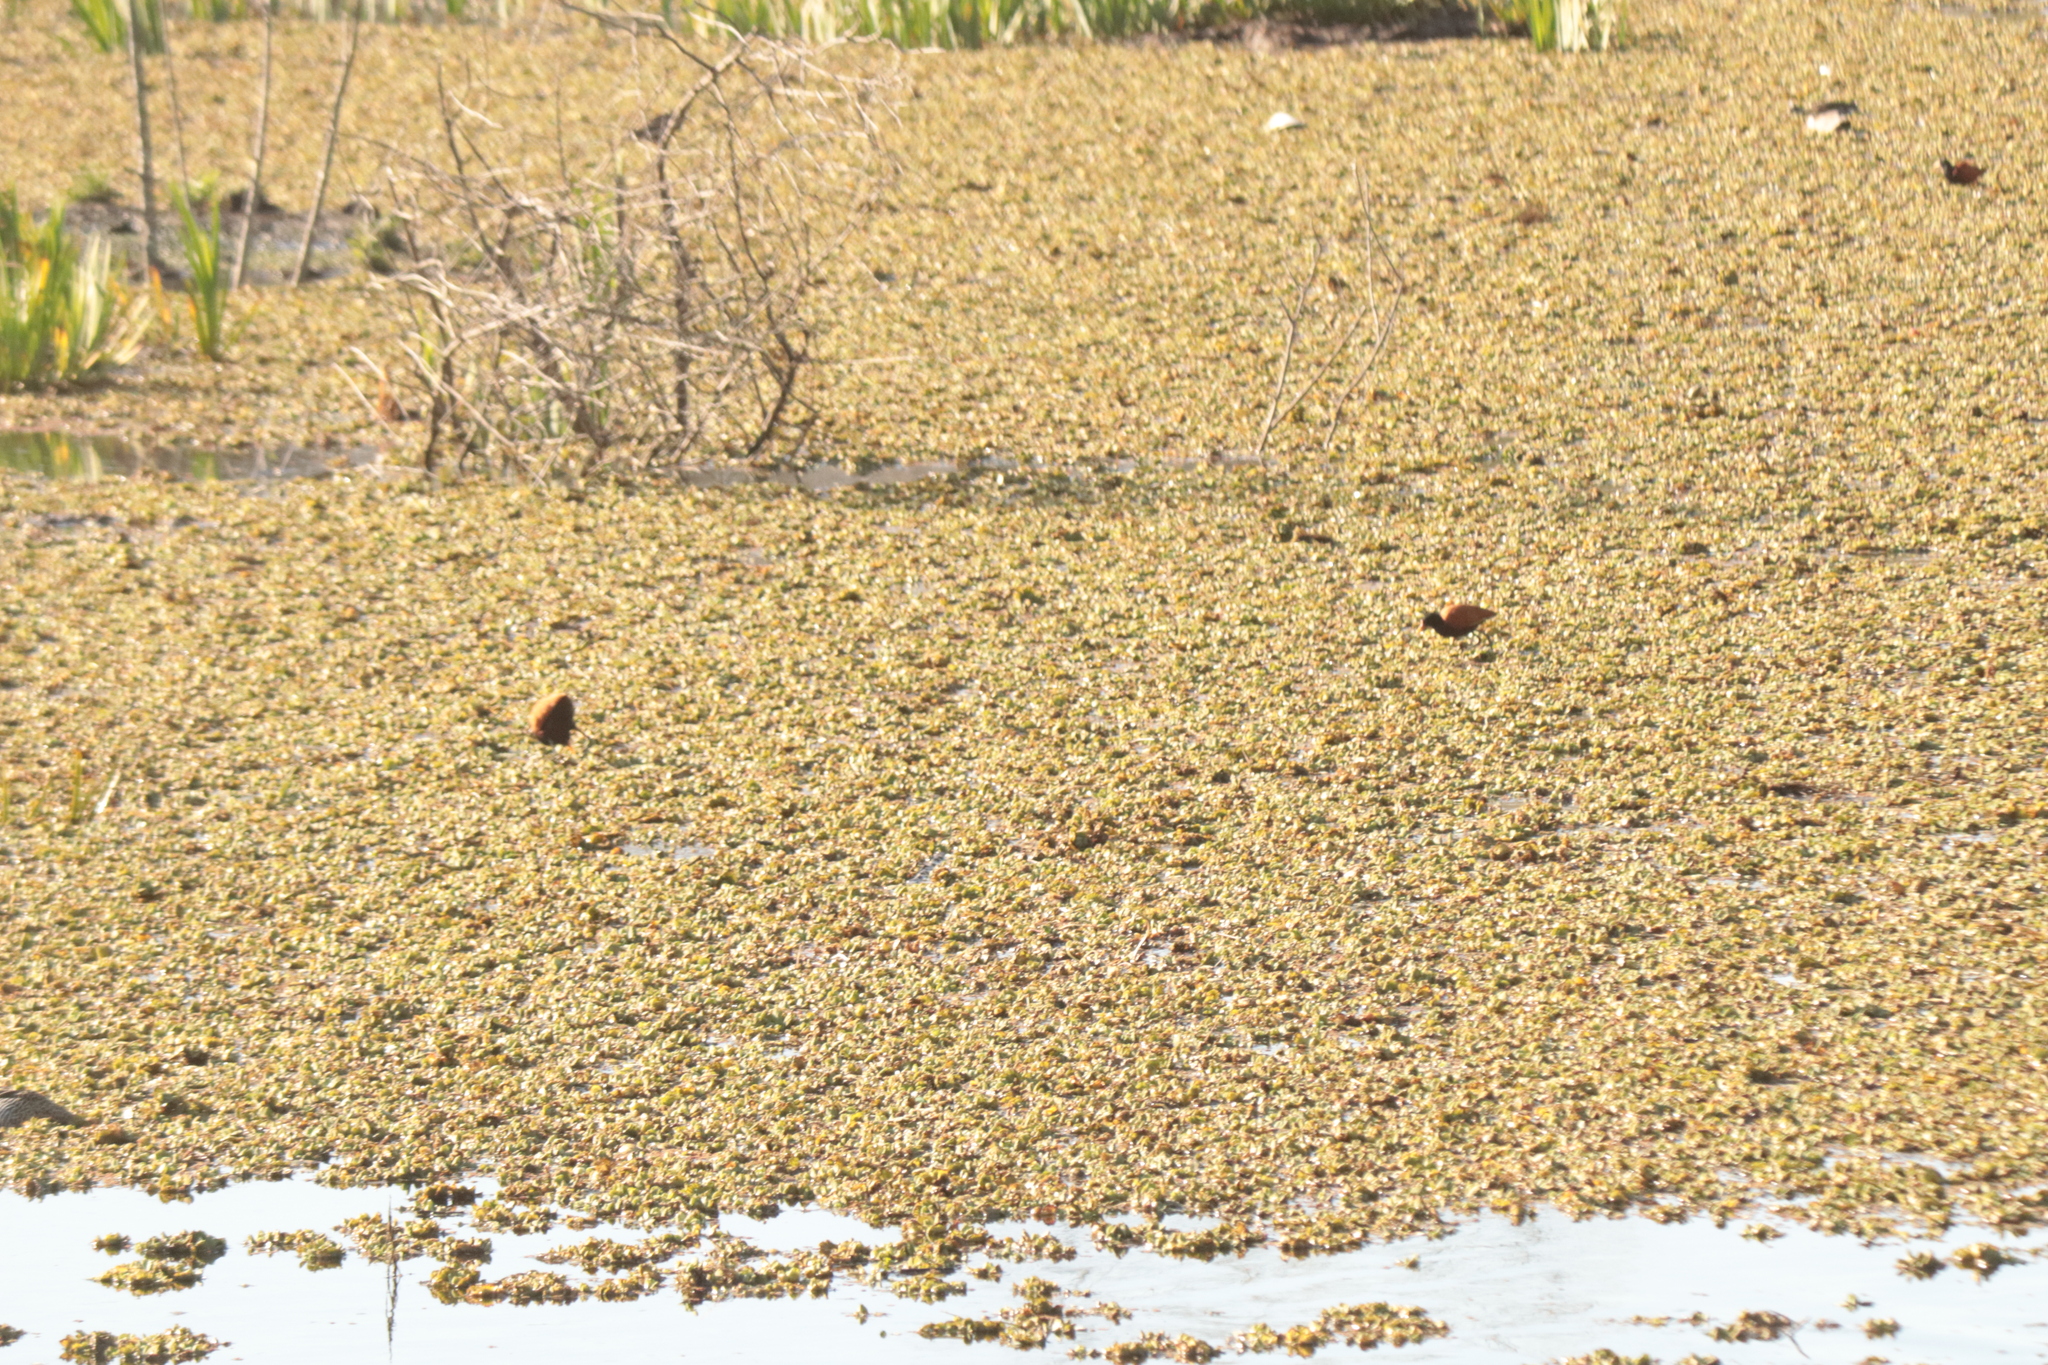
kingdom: Animalia
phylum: Chordata
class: Aves
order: Charadriiformes
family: Jacanidae
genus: Jacana
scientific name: Jacana jacana
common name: Wattled jacana
